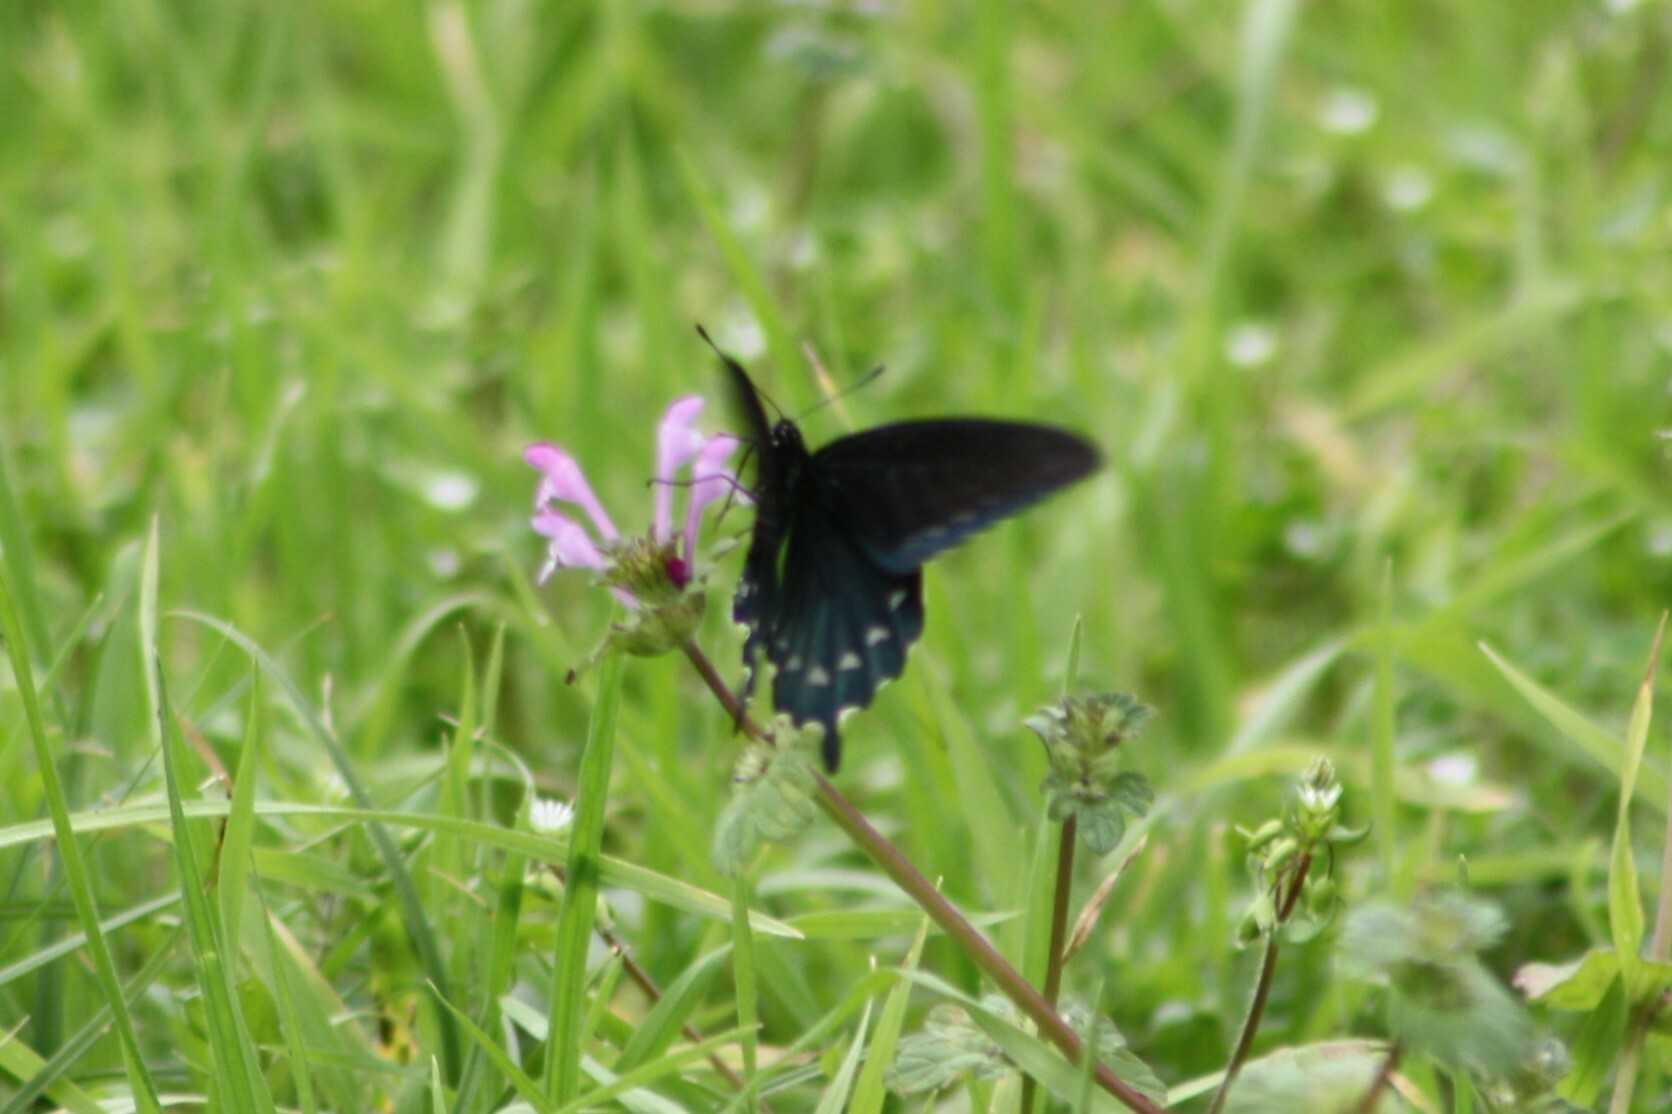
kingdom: Animalia
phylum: Arthropoda
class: Insecta
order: Lepidoptera
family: Papilionidae
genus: Battus
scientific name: Battus philenor
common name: Pipevine swallowtail
